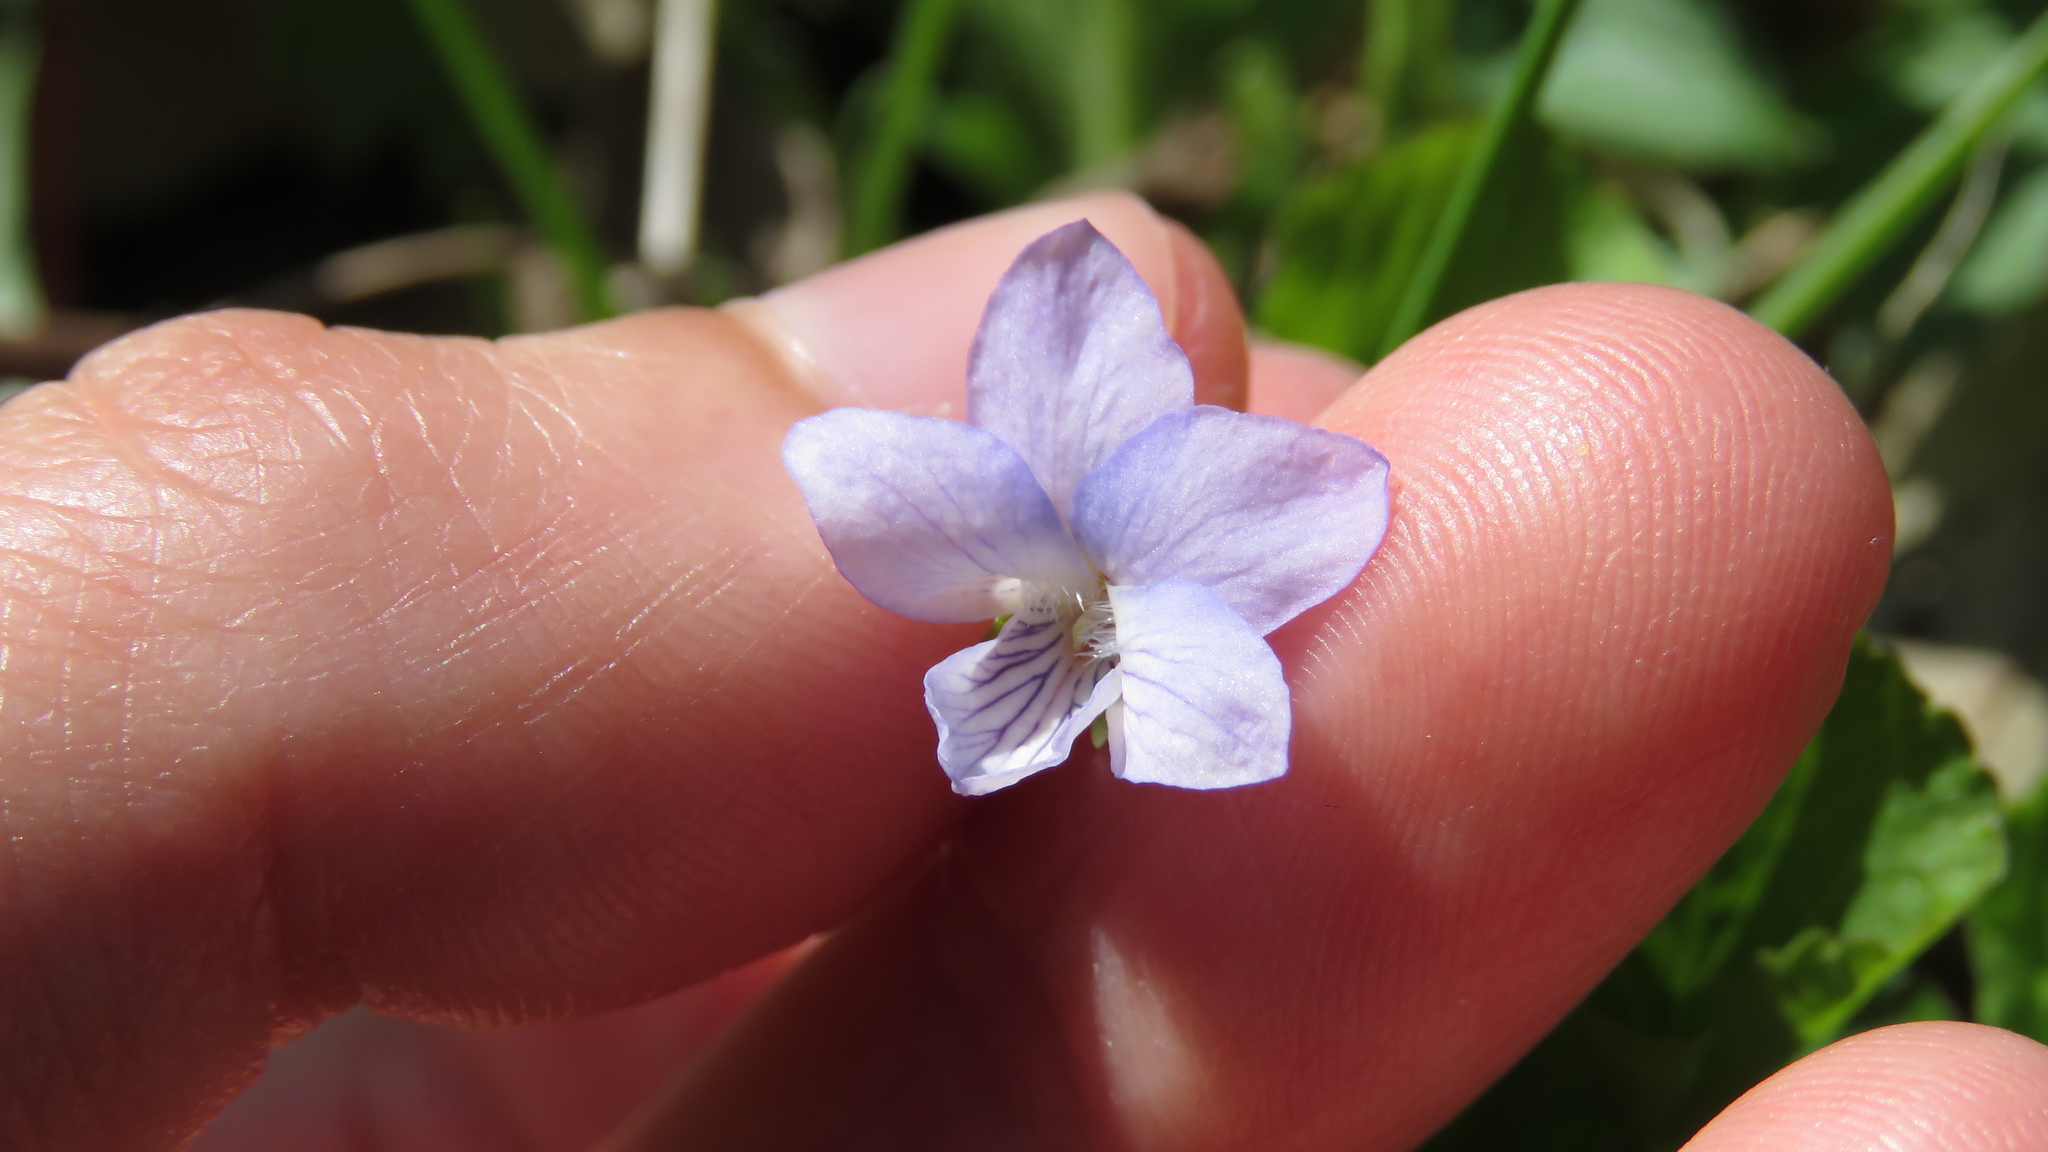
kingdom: Plantae
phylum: Tracheophyta
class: Magnoliopsida
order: Malpighiales
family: Violaceae
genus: Viola
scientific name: Viola cucullata
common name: Marsh blue violet
